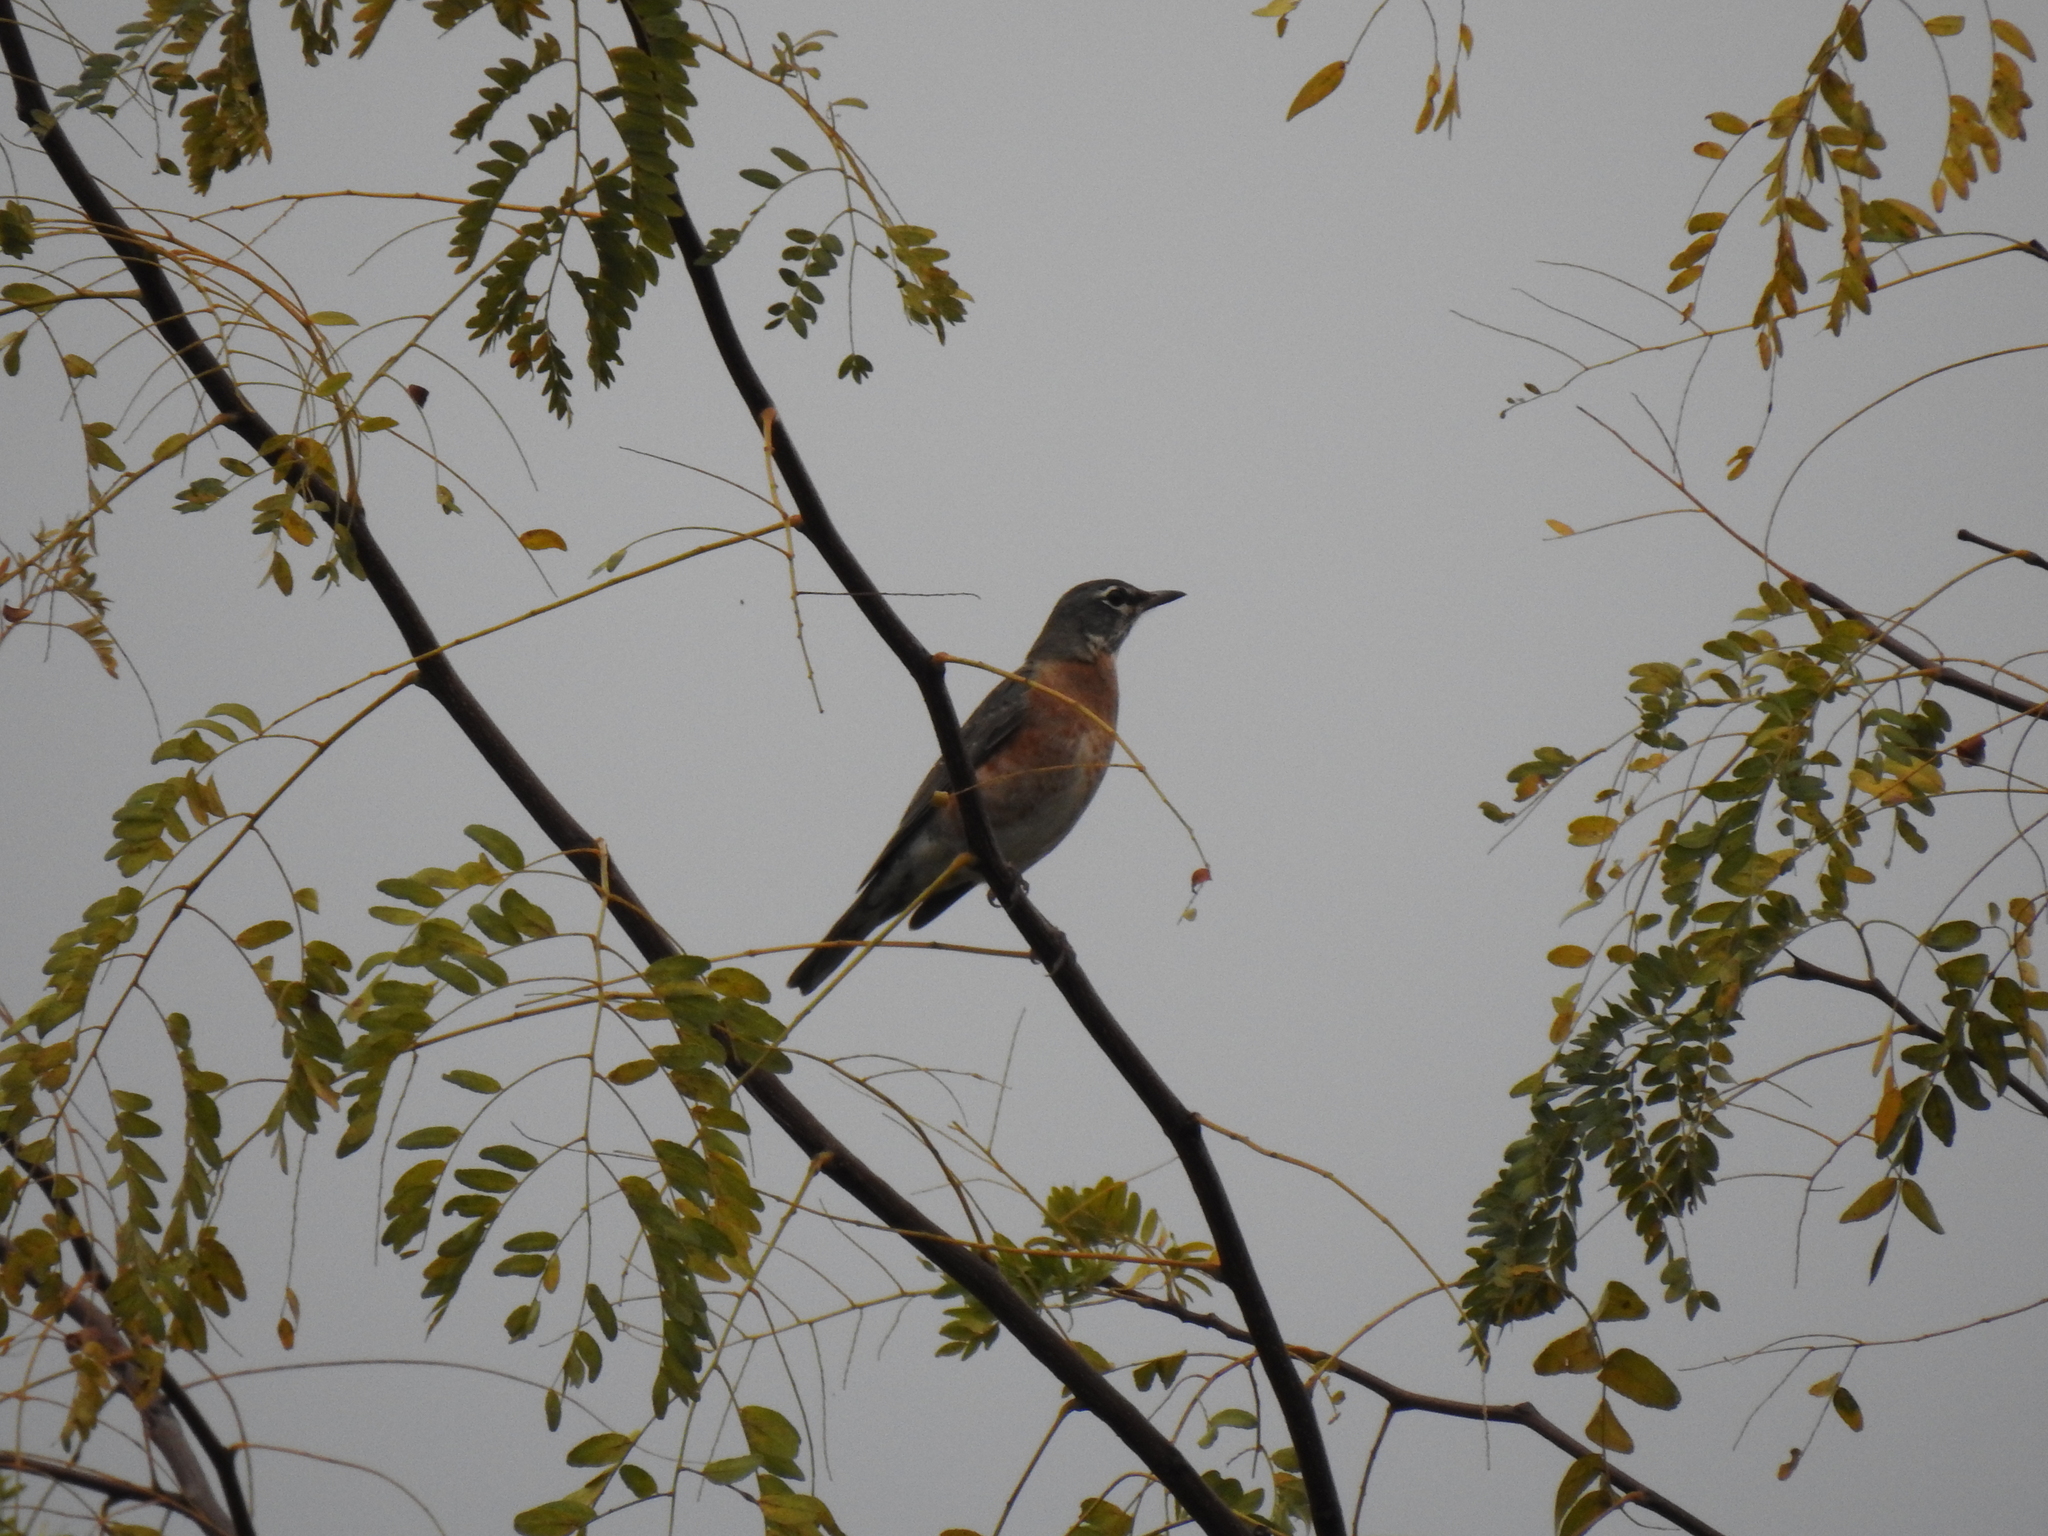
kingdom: Animalia
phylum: Chordata
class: Aves
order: Passeriformes
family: Turdidae
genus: Turdus
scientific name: Turdus migratorius
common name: American robin
